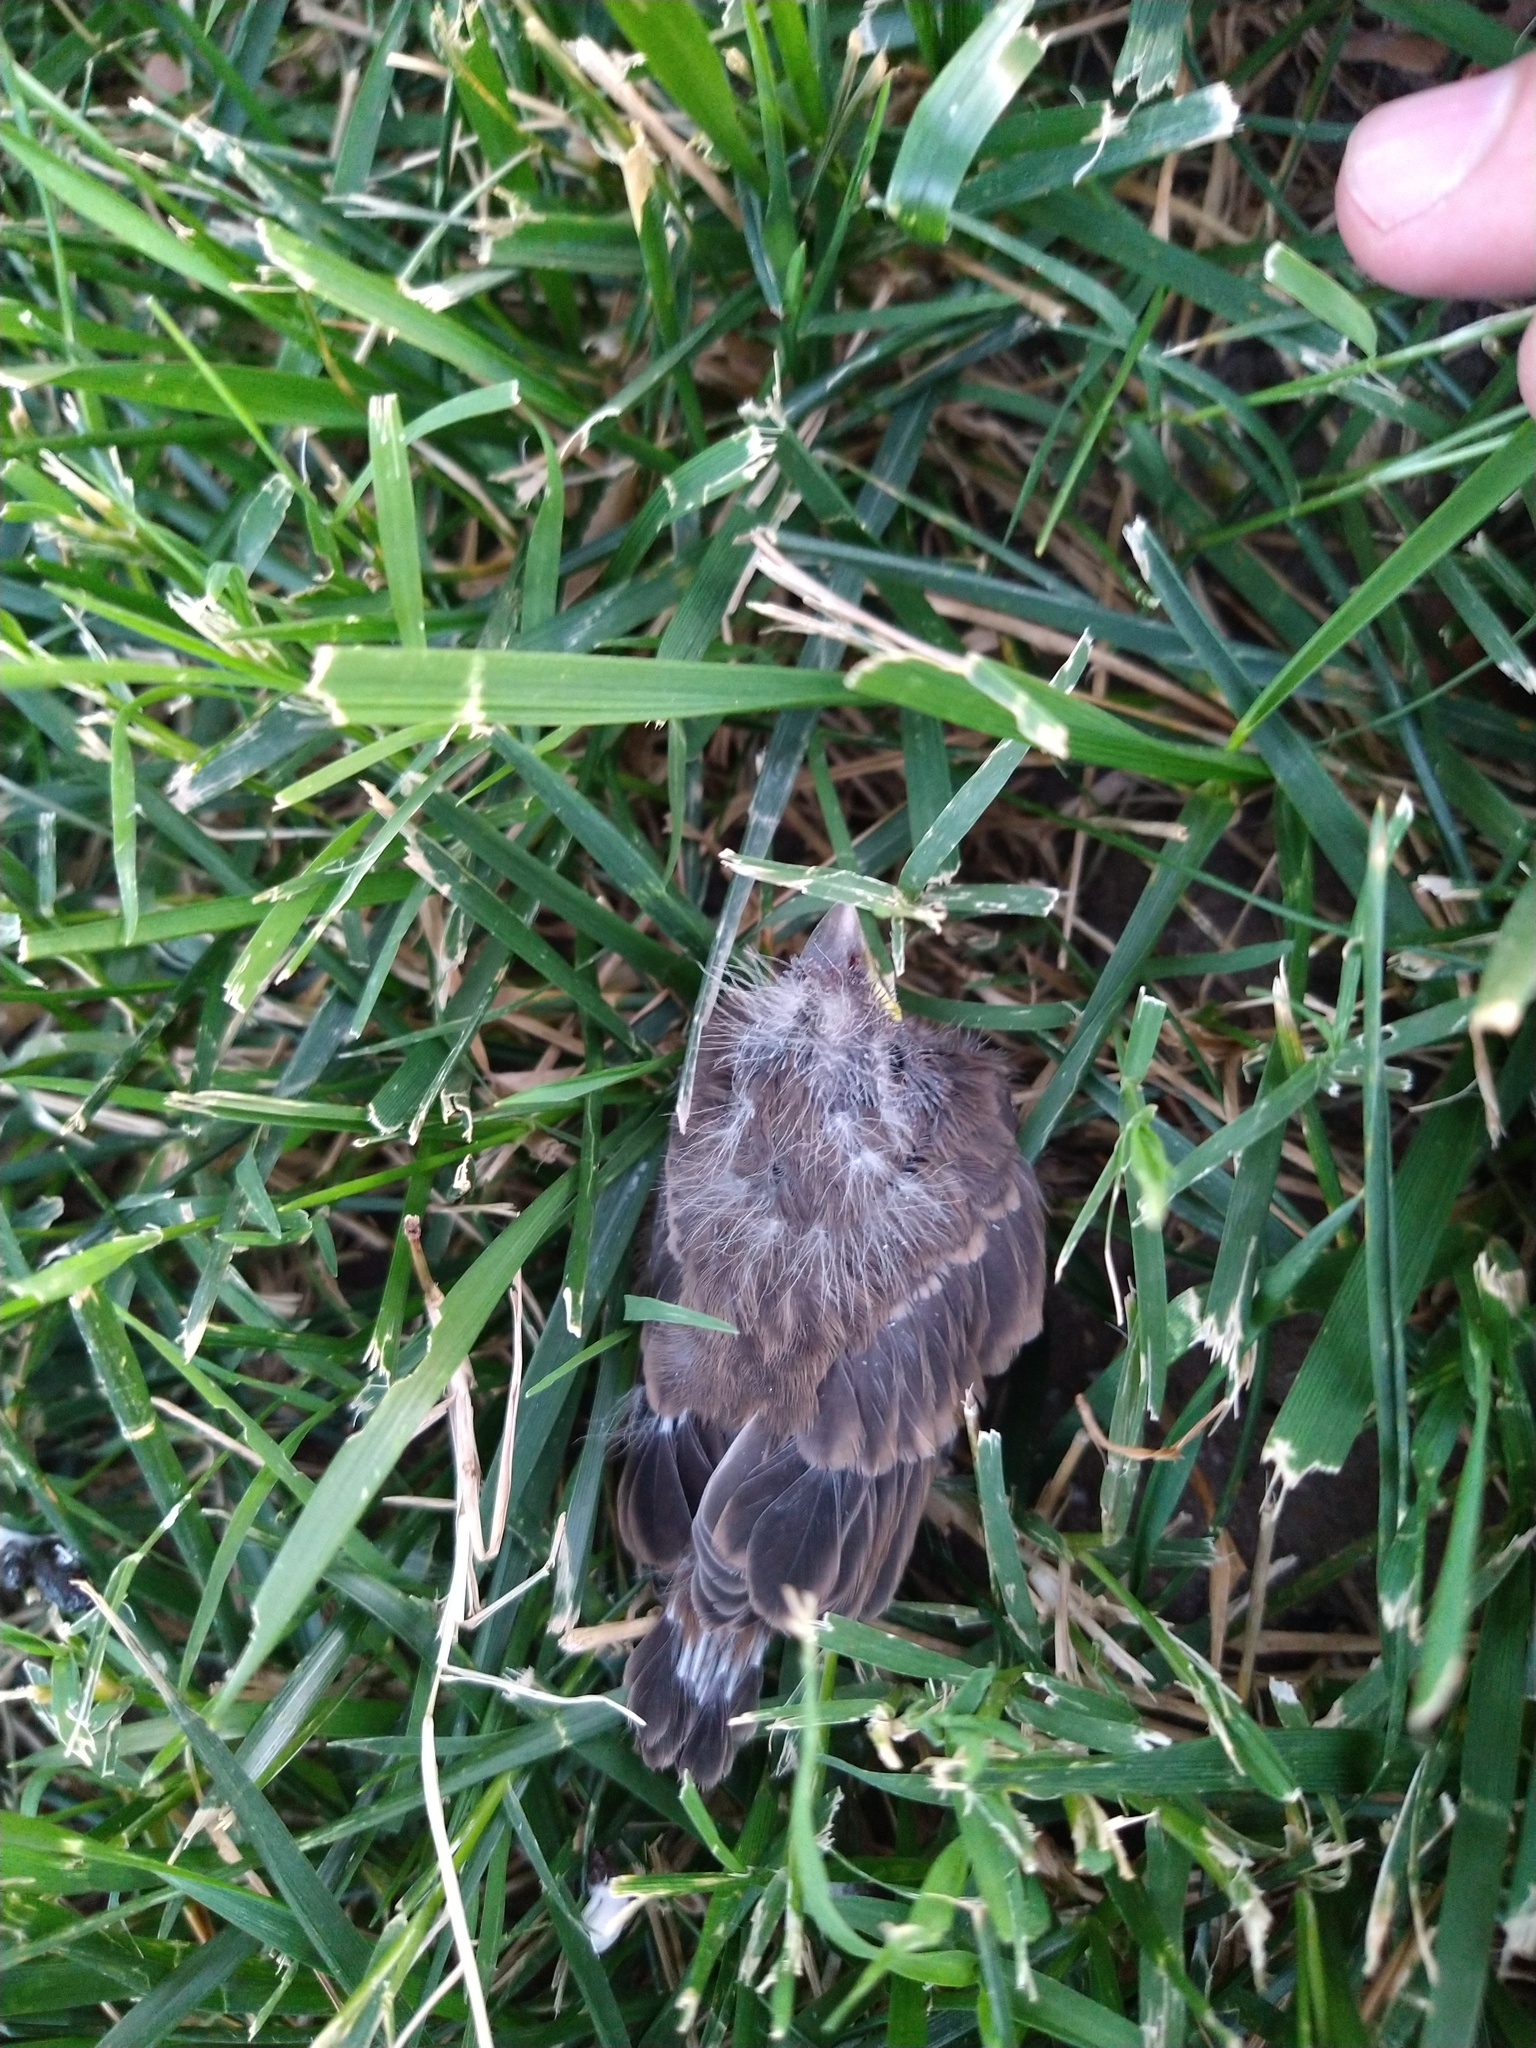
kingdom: Animalia
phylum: Chordata
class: Aves
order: Passeriformes
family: Fringillidae
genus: Haemorhous
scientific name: Haemorhous mexicanus
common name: House finch
